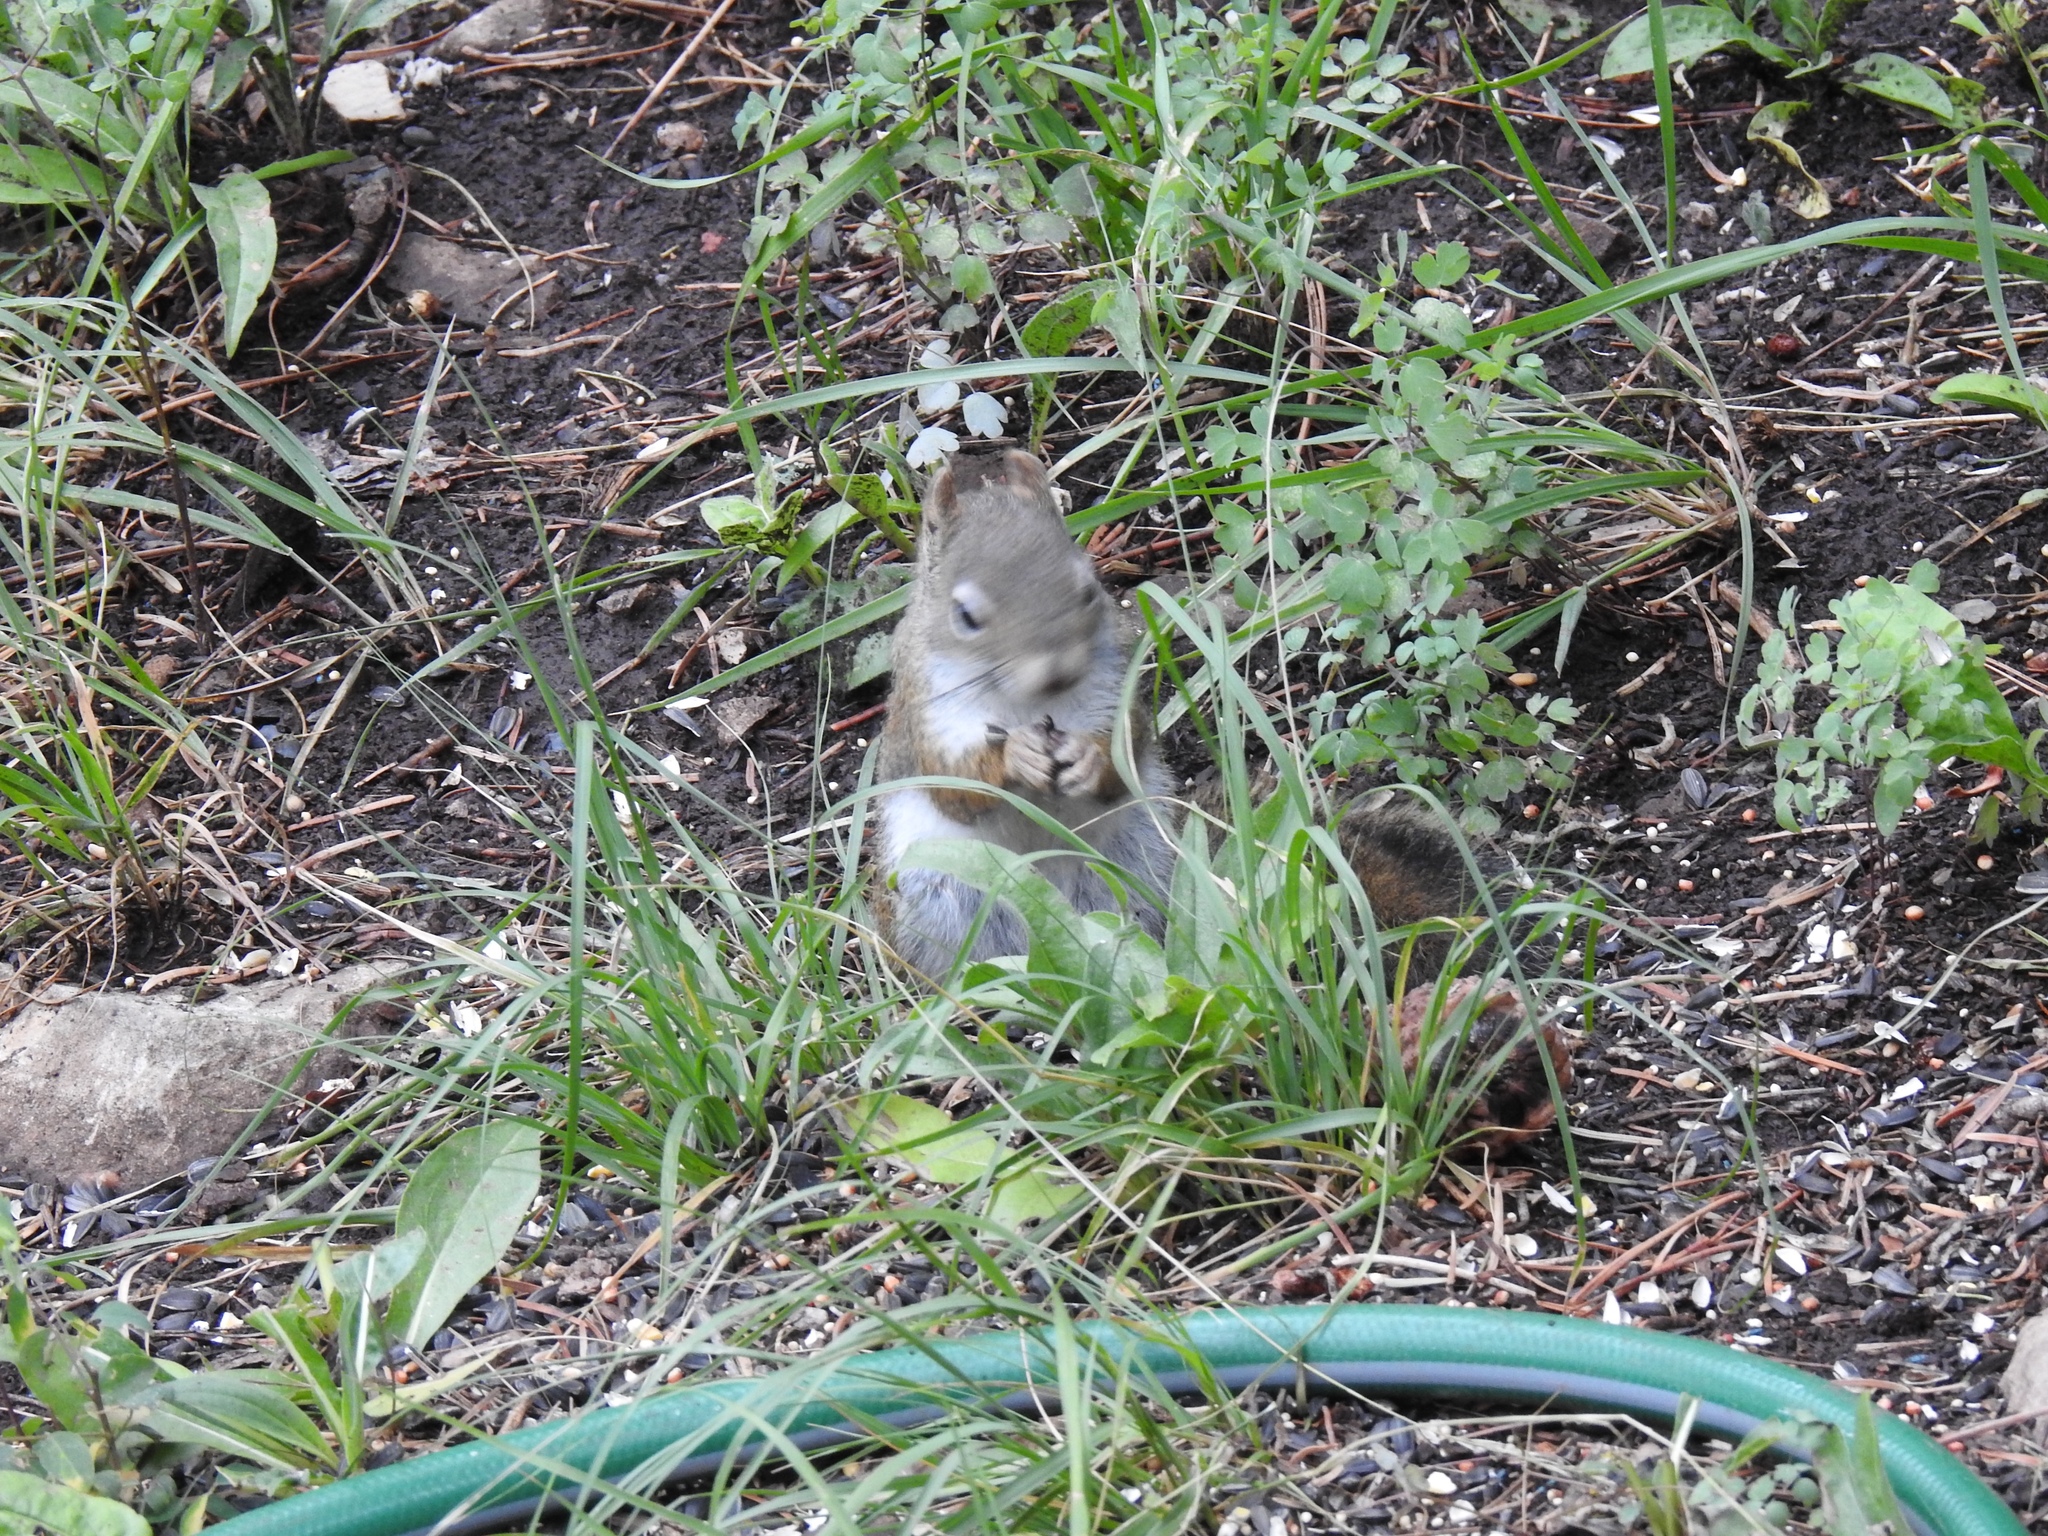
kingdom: Animalia
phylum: Chordata
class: Mammalia
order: Rodentia
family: Sciuridae
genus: Tamiasciurus
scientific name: Tamiasciurus hudsonicus
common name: Red squirrel
